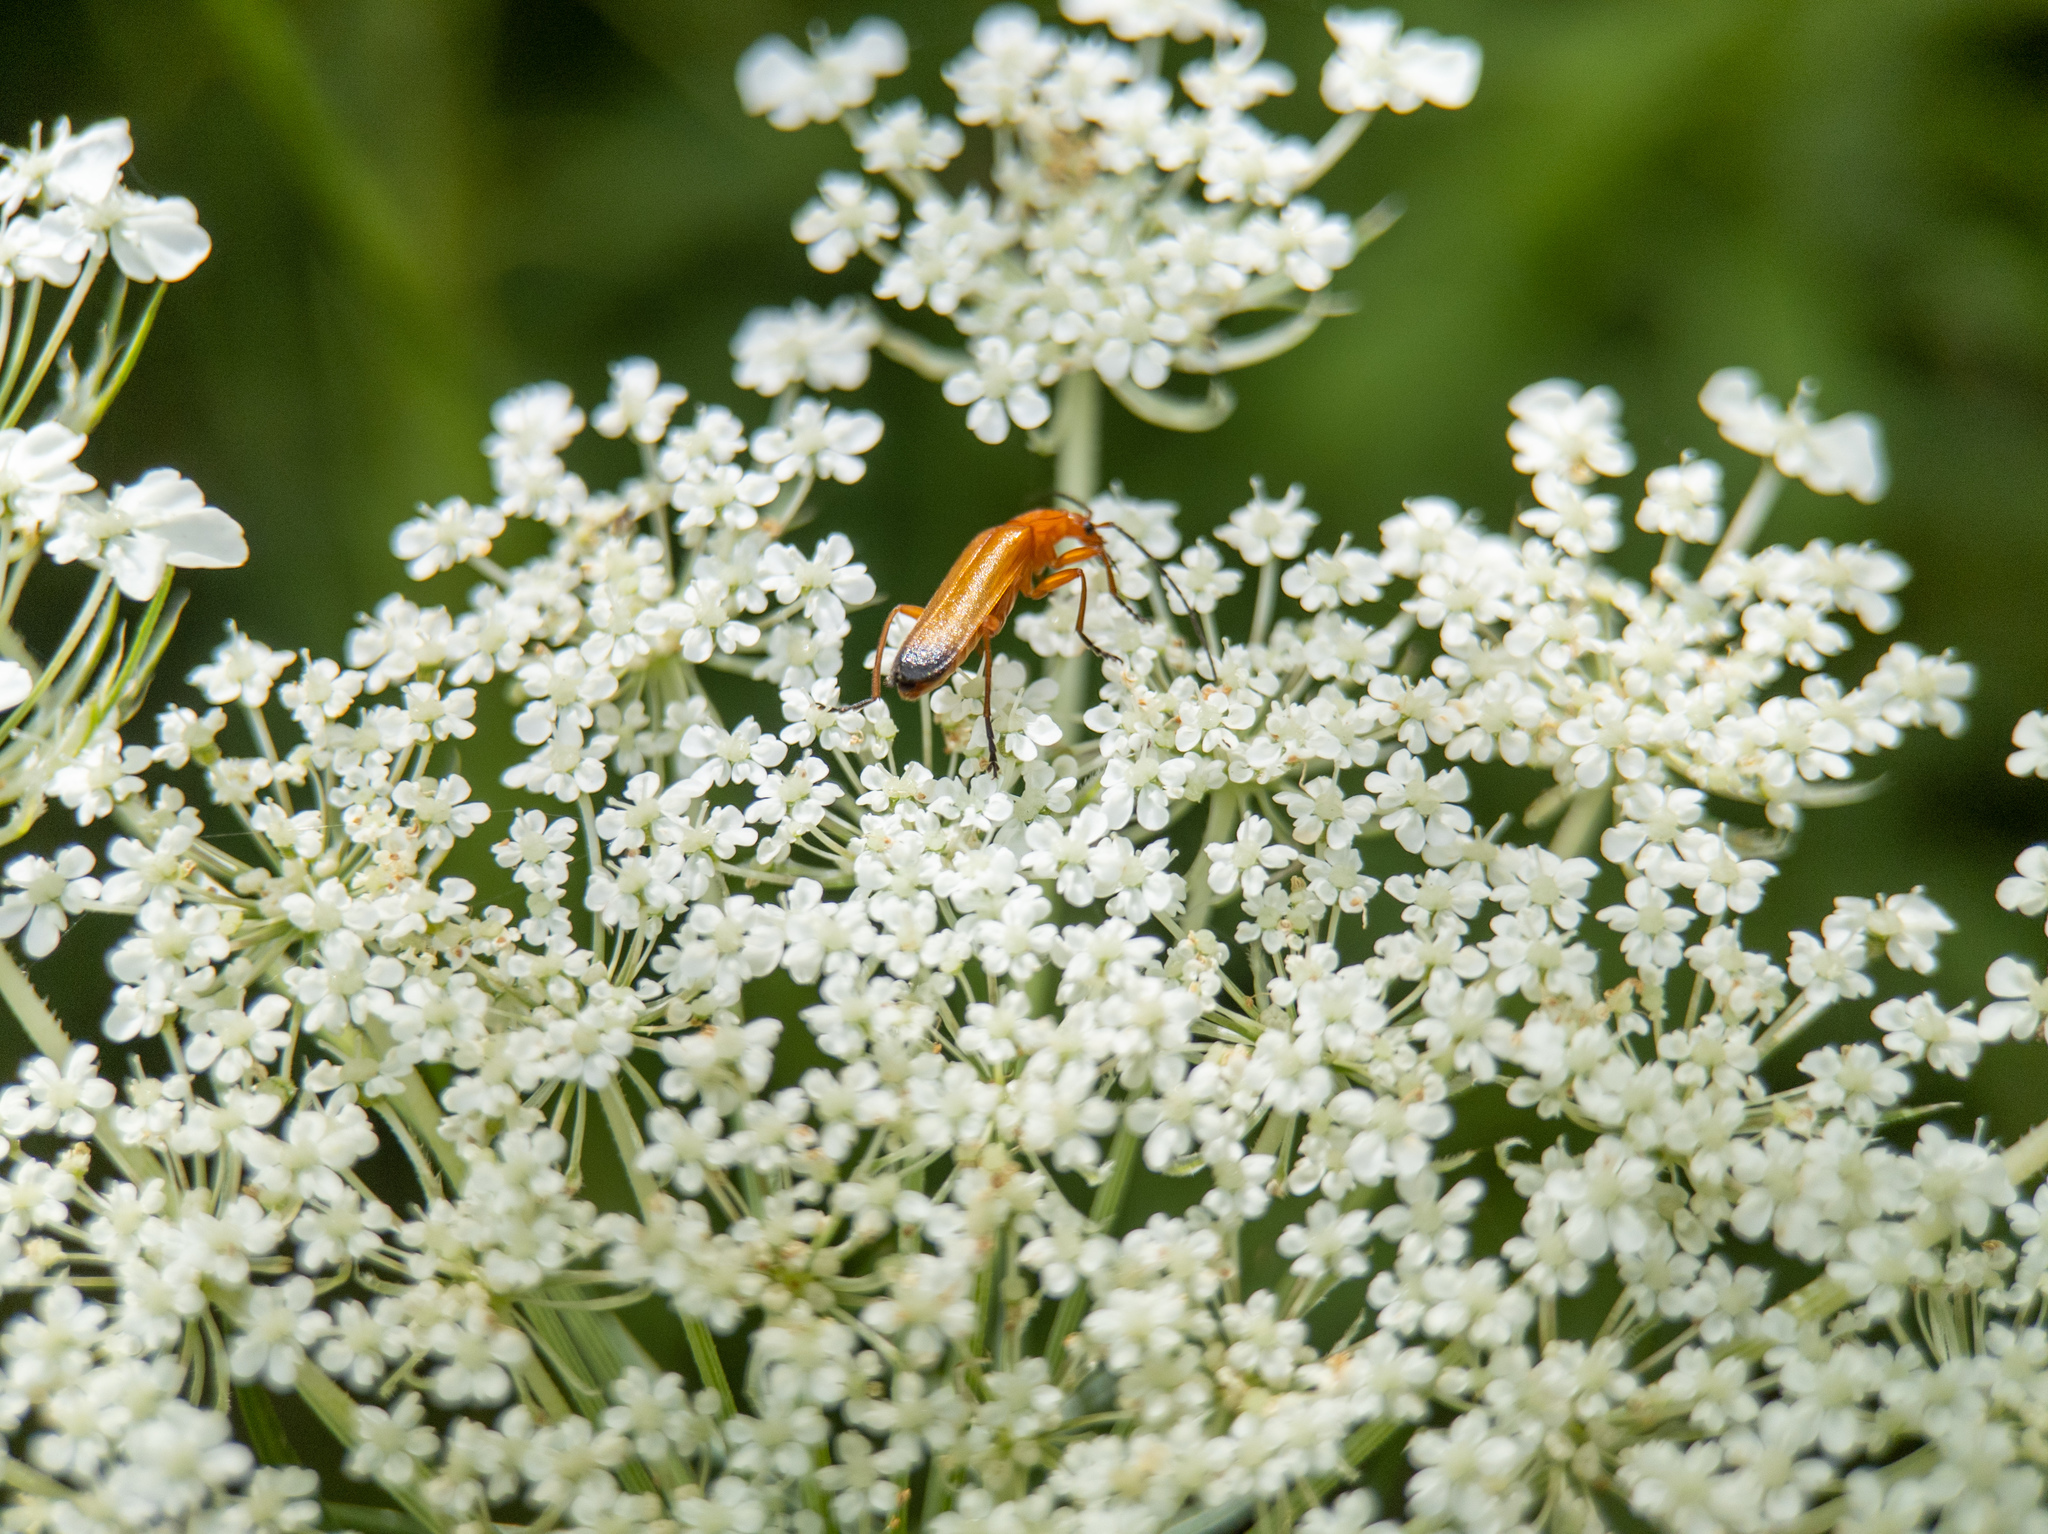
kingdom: Animalia
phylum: Arthropoda
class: Insecta
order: Coleoptera
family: Cantharidae
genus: Rhagonycha
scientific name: Rhagonycha fulva
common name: Common red soldier beetle
